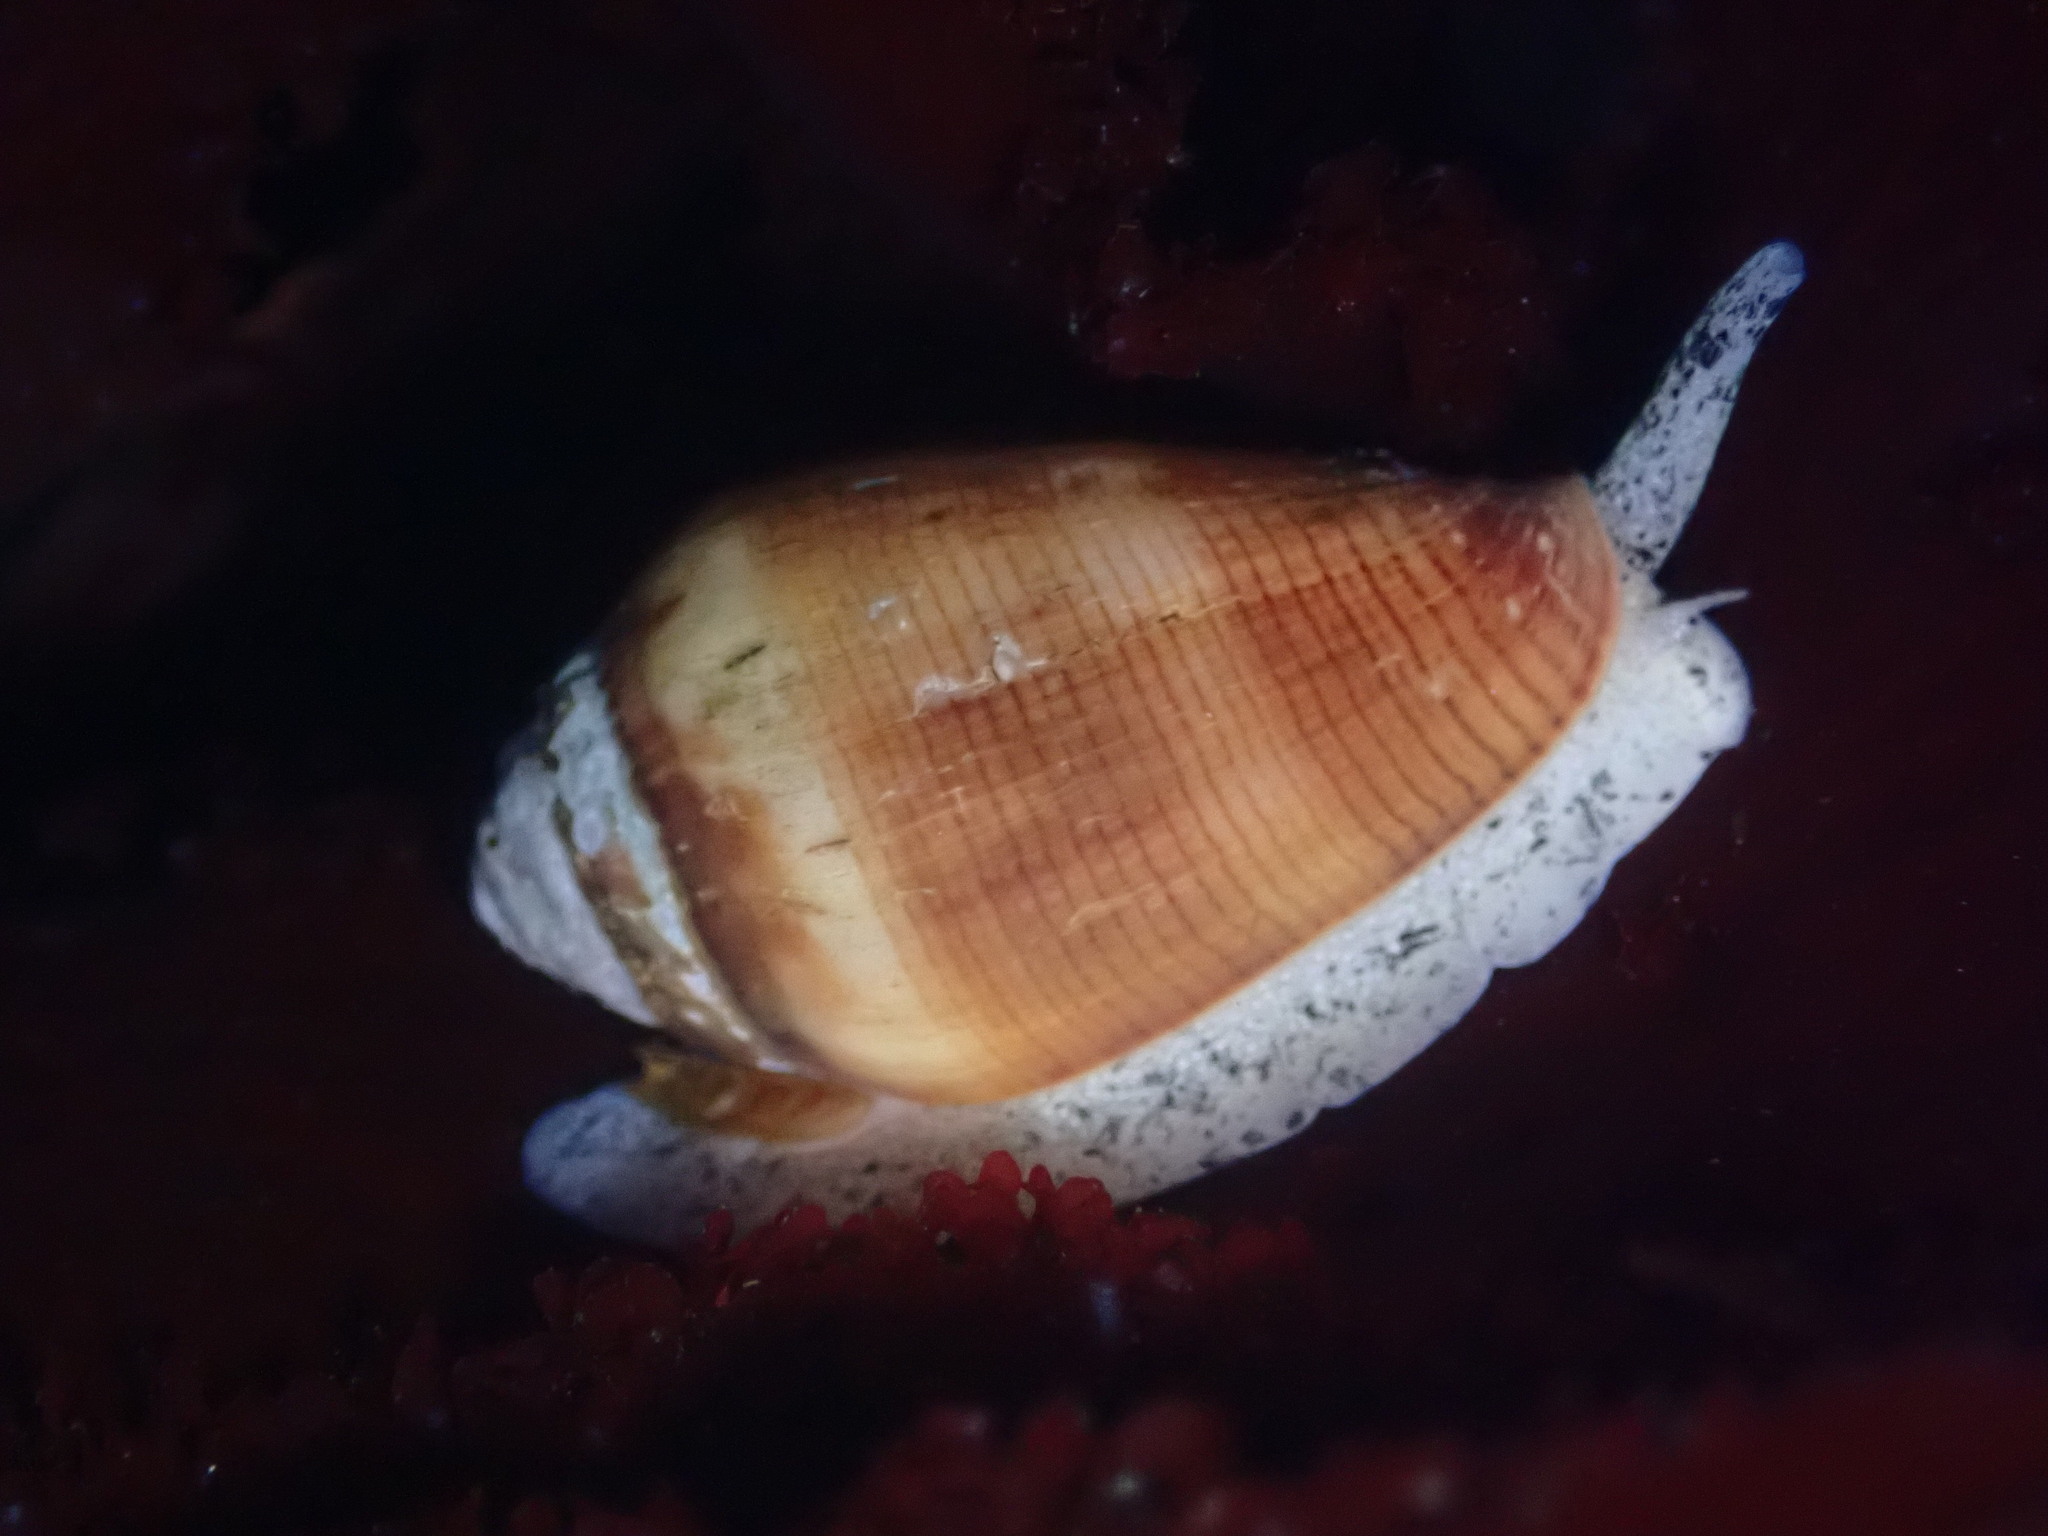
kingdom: Animalia
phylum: Mollusca
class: Gastropoda
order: Neogastropoda
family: Conidae
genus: Californiconus
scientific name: Californiconus californicus
